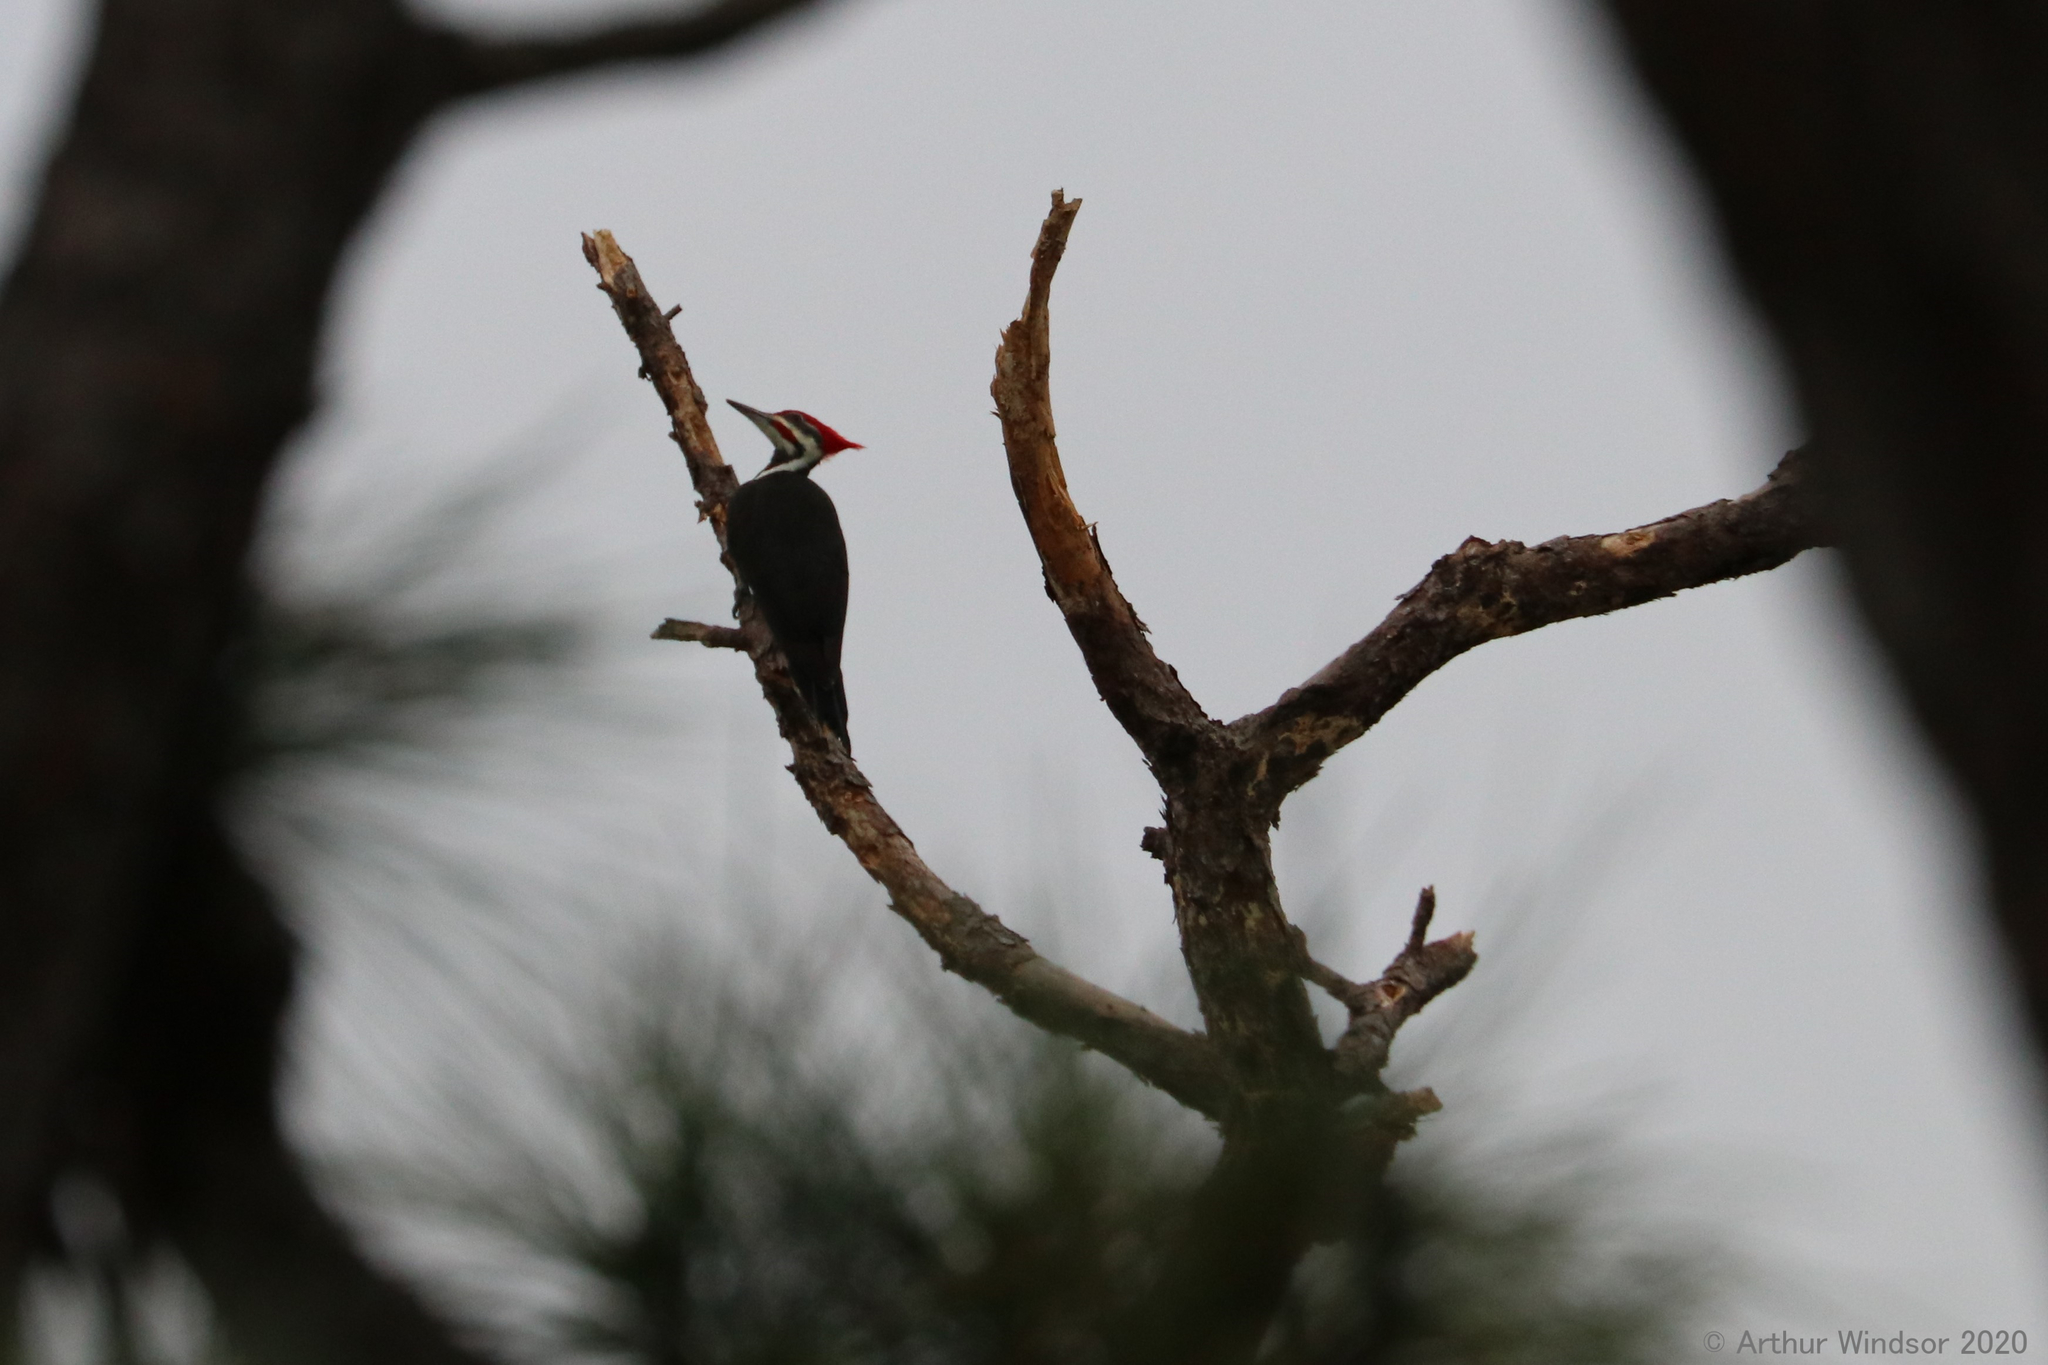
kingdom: Animalia
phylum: Chordata
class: Aves
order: Piciformes
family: Picidae
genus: Dryocopus
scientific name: Dryocopus pileatus
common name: Pileated woodpecker
